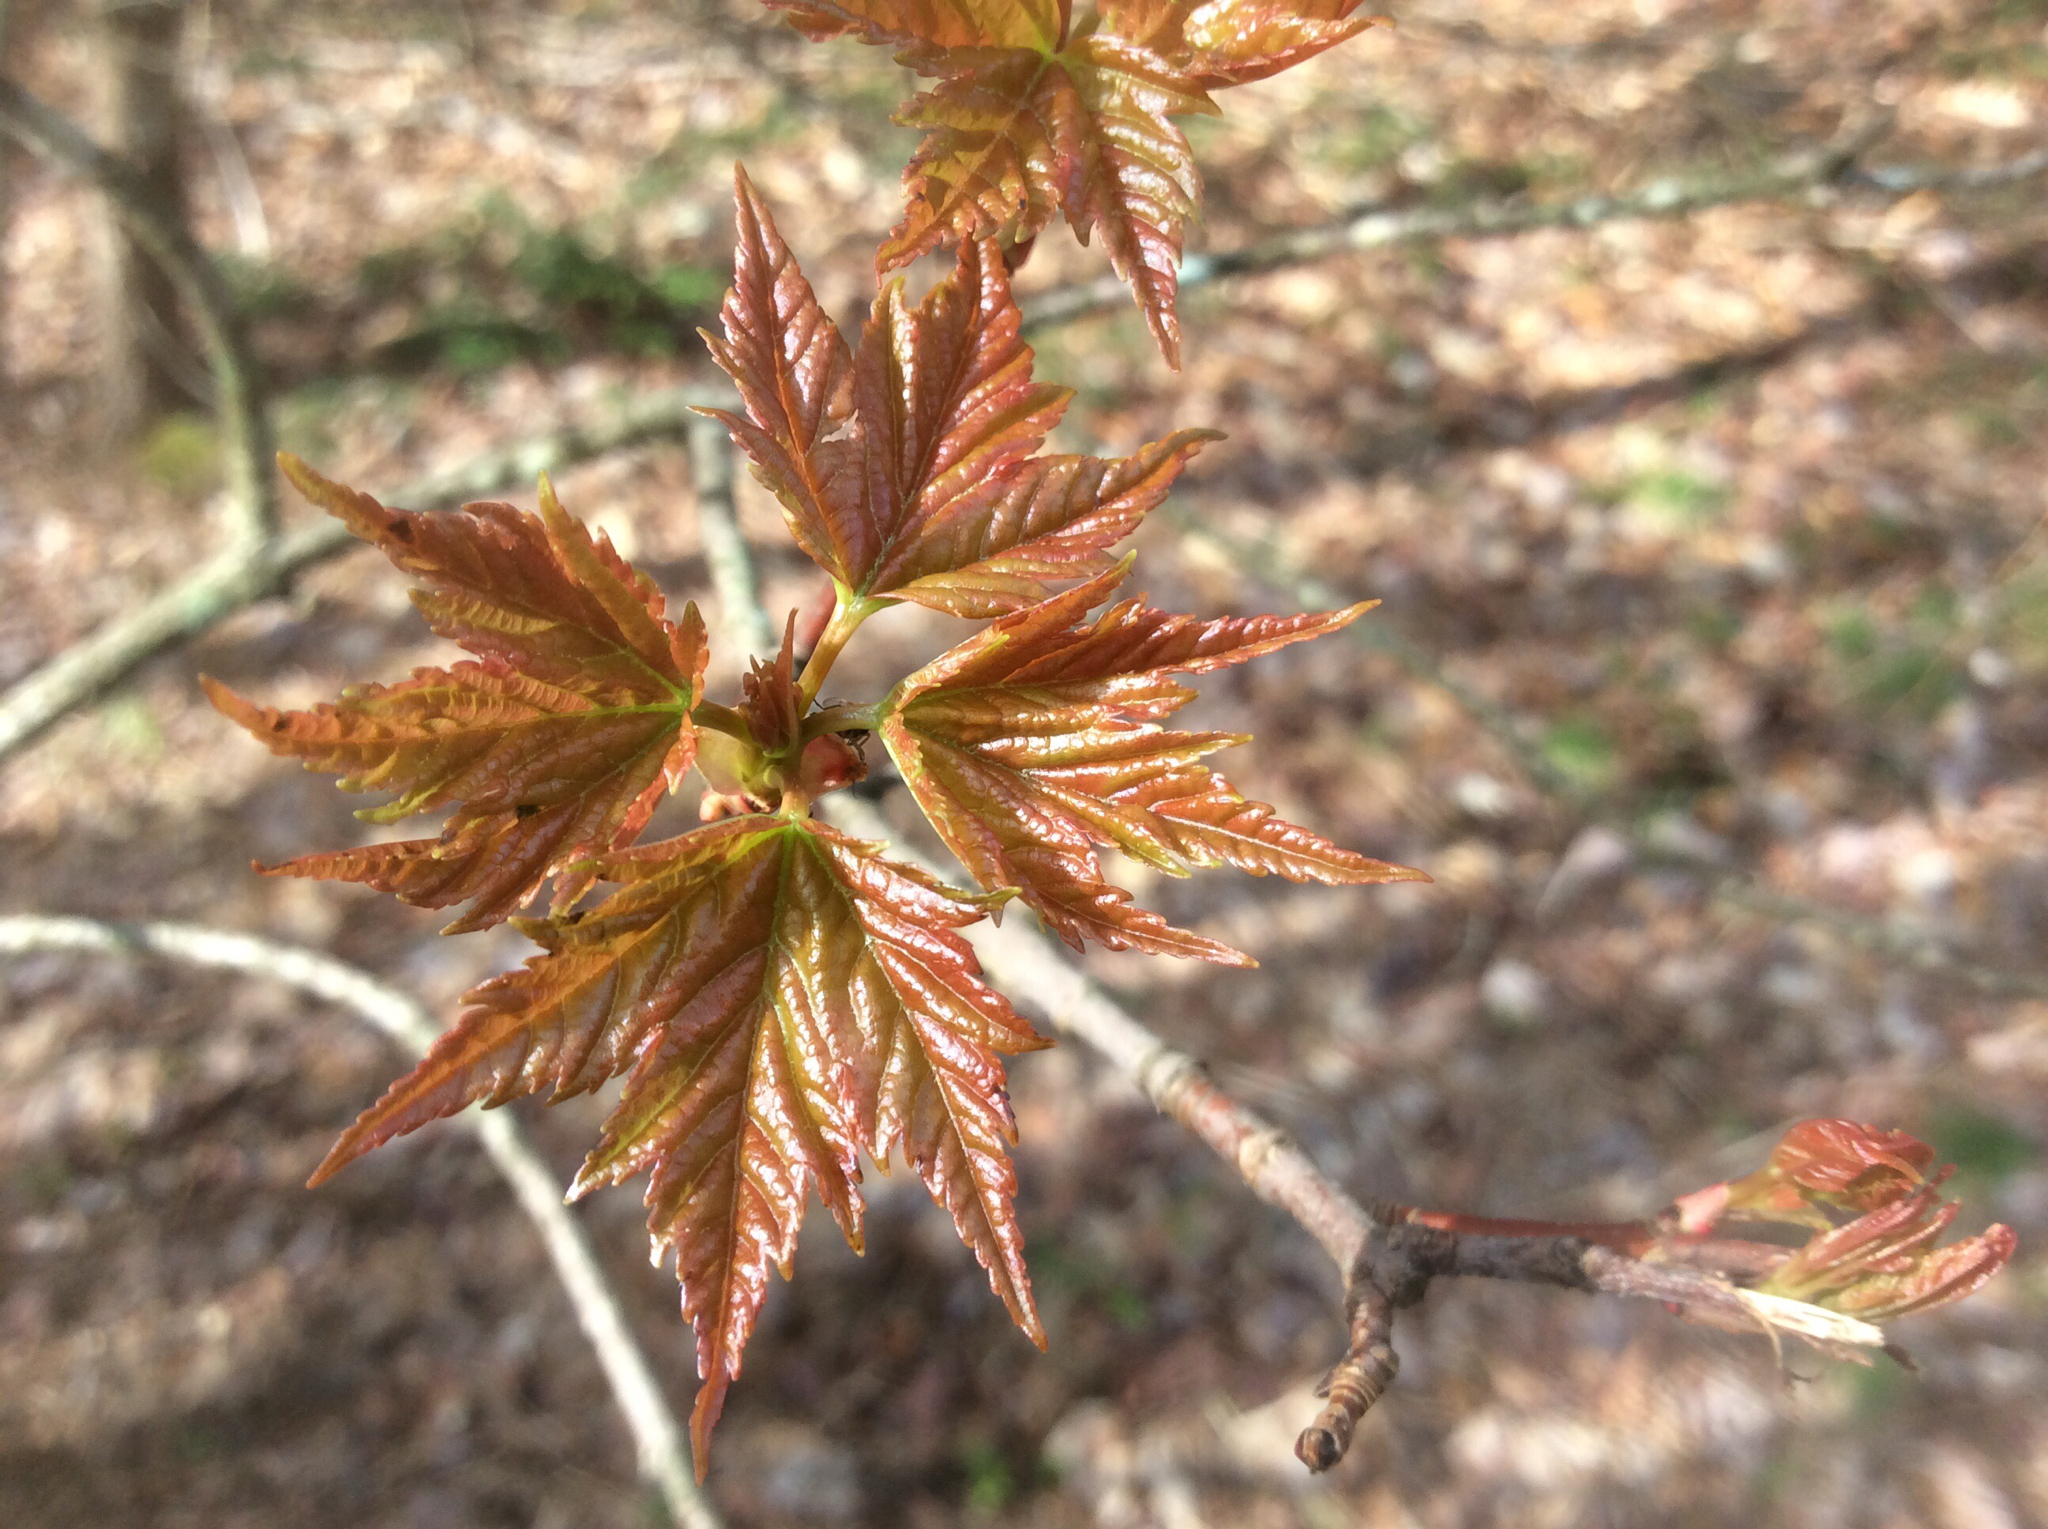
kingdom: Plantae
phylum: Tracheophyta
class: Magnoliopsida
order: Sapindales
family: Sapindaceae
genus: Acer
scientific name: Acer rubrum
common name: Red maple
